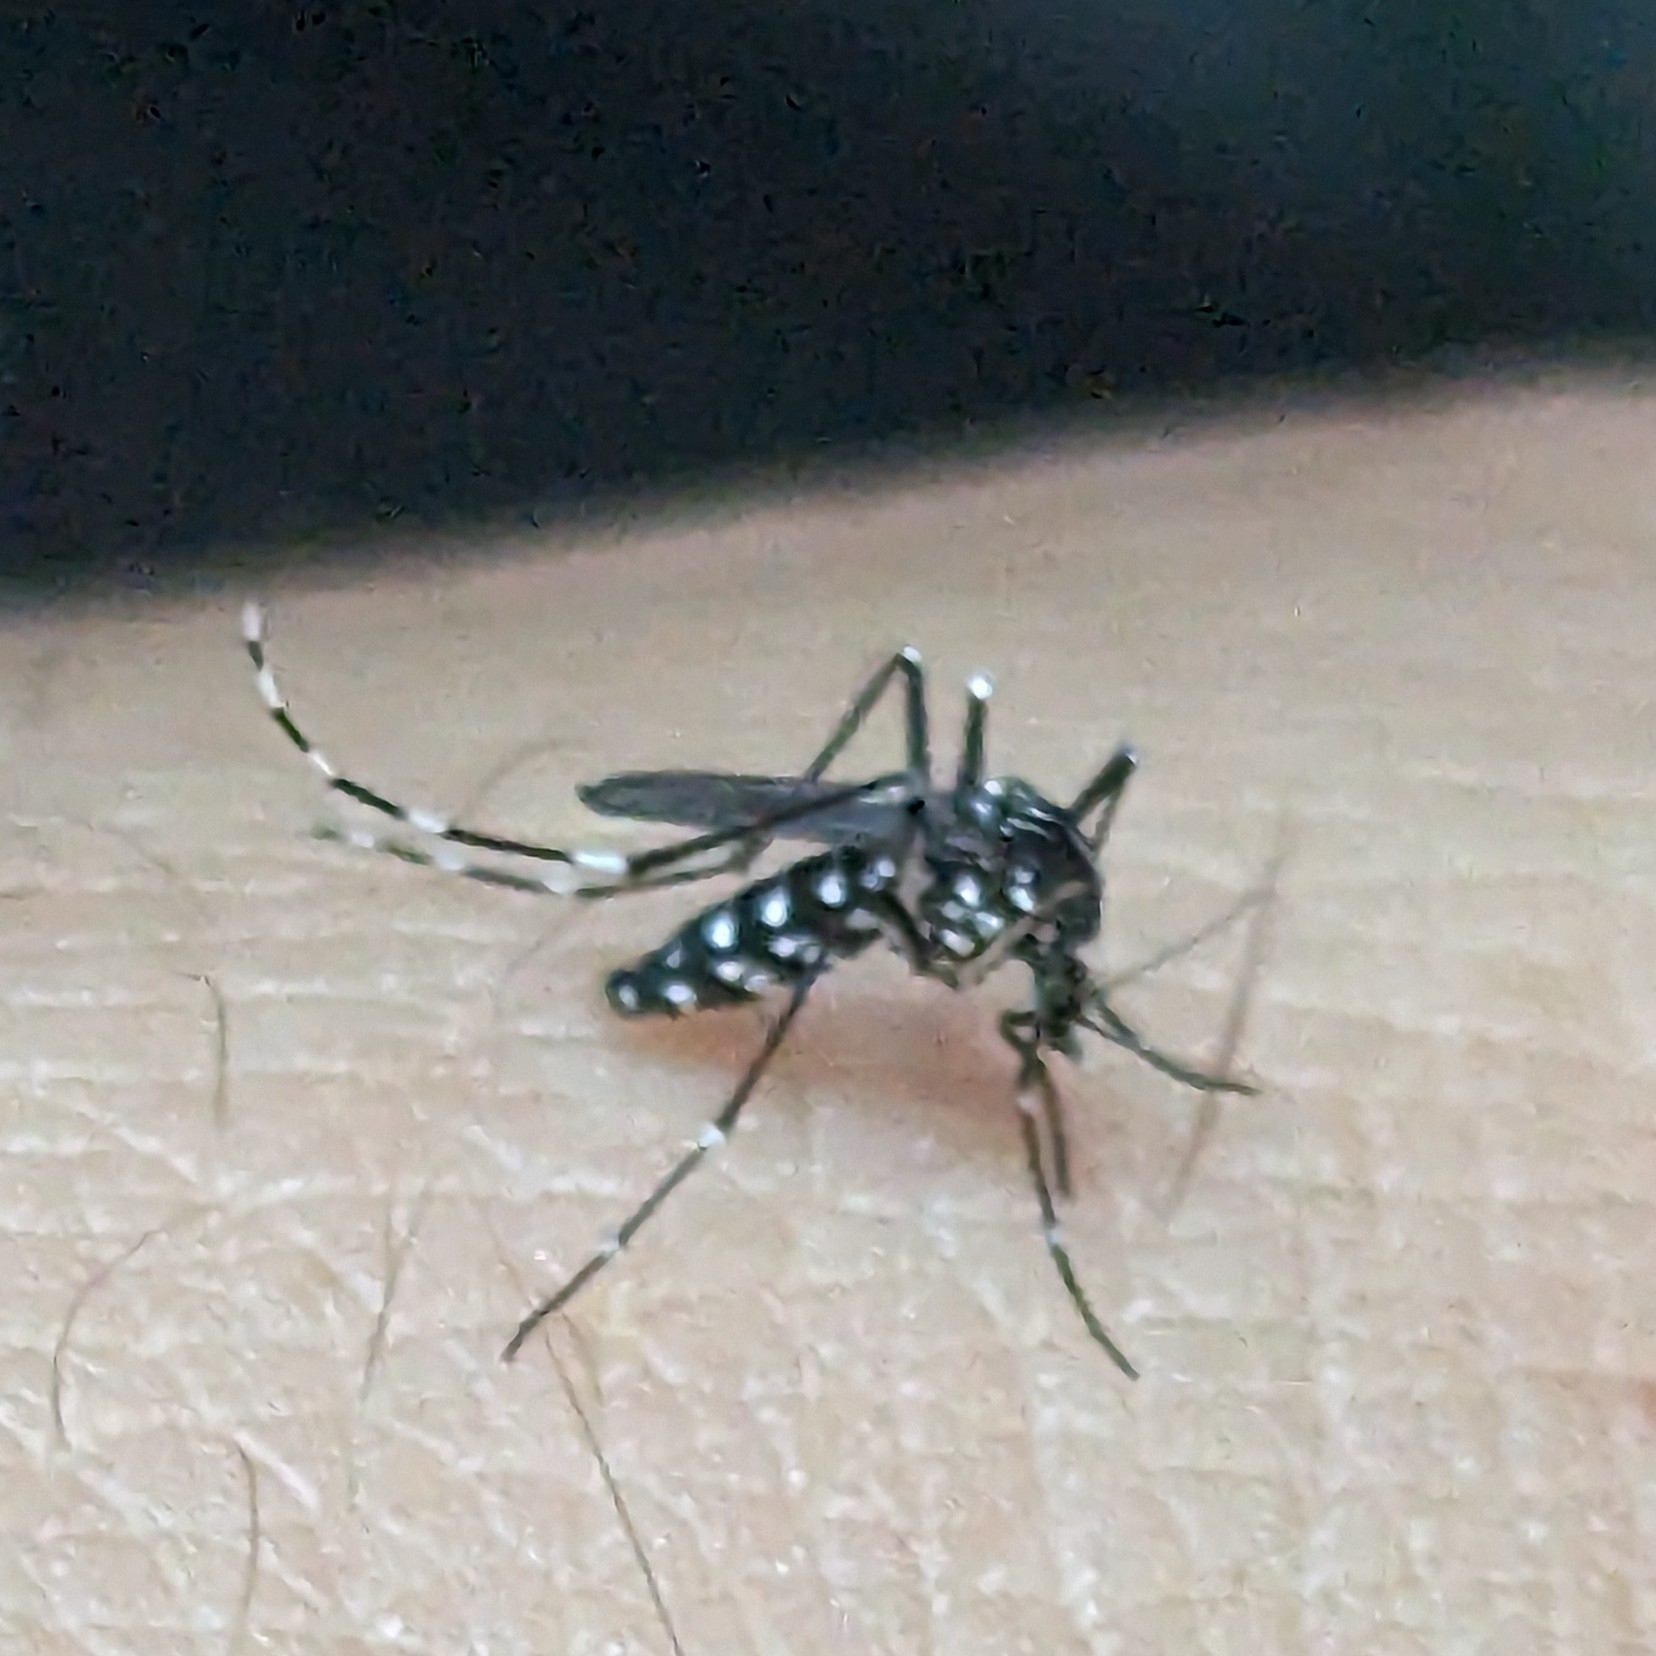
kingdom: Animalia
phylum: Arthropoda
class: Insecta
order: Diptera
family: Culicidae
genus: Aedes
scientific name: Aedes albopictus
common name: Tiger mosquito
